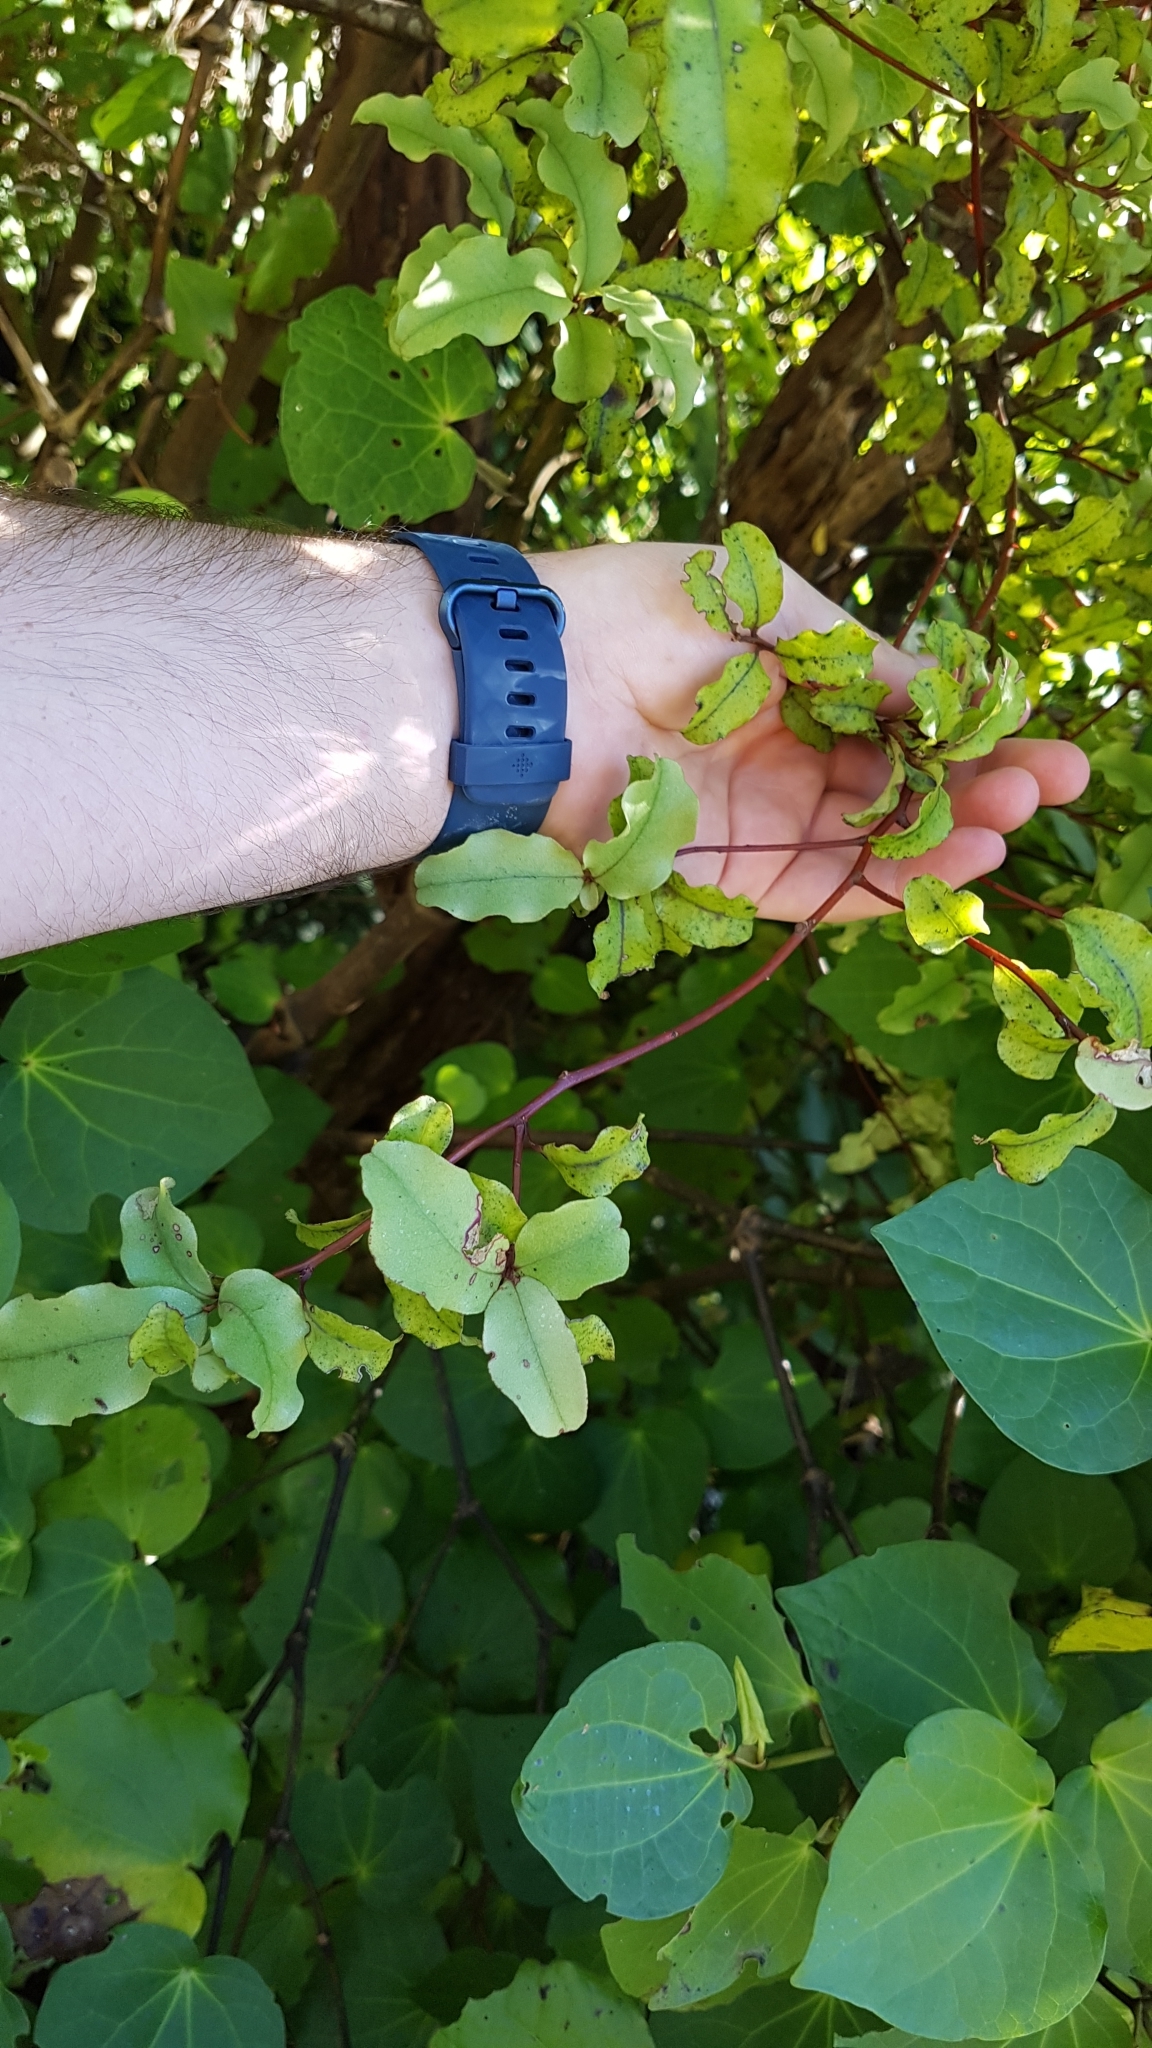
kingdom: Plantae
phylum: Tracheophyta
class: Magnoliopsida
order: Ericales
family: Primulaceae
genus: Myrsine
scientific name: Myrsine australis
